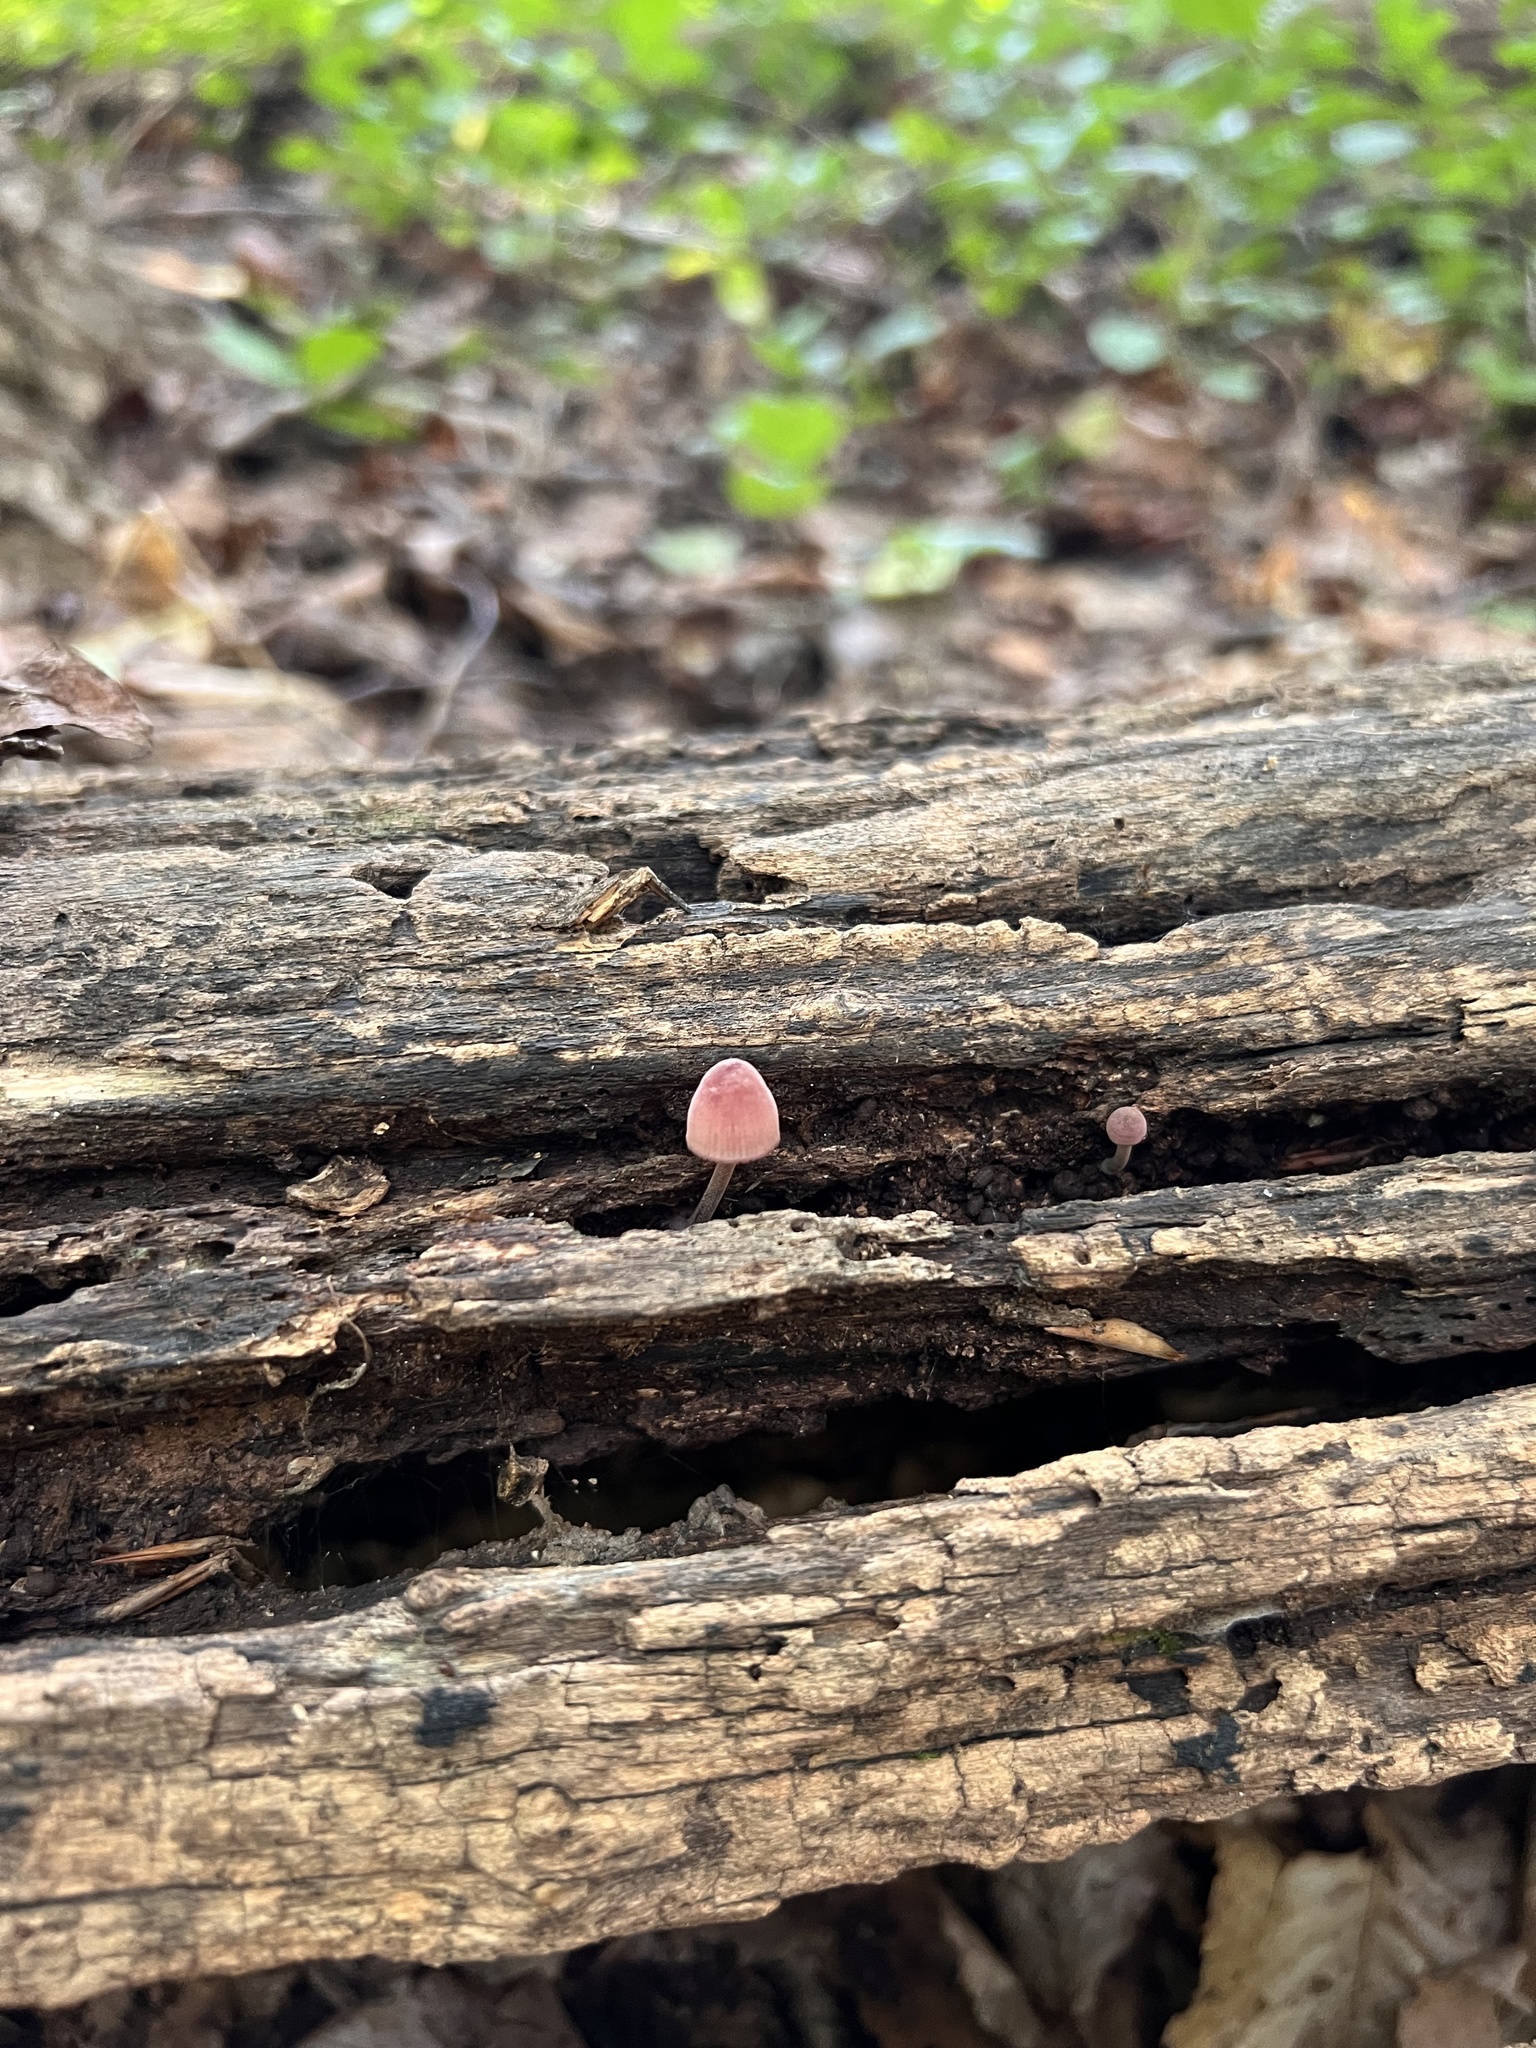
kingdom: Fungi
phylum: Basidiomycota
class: Agaricomycetes
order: Agaricales
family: Mycenaceae
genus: Mycena
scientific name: Mycena haematopus
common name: Burgundydrop bonnet
